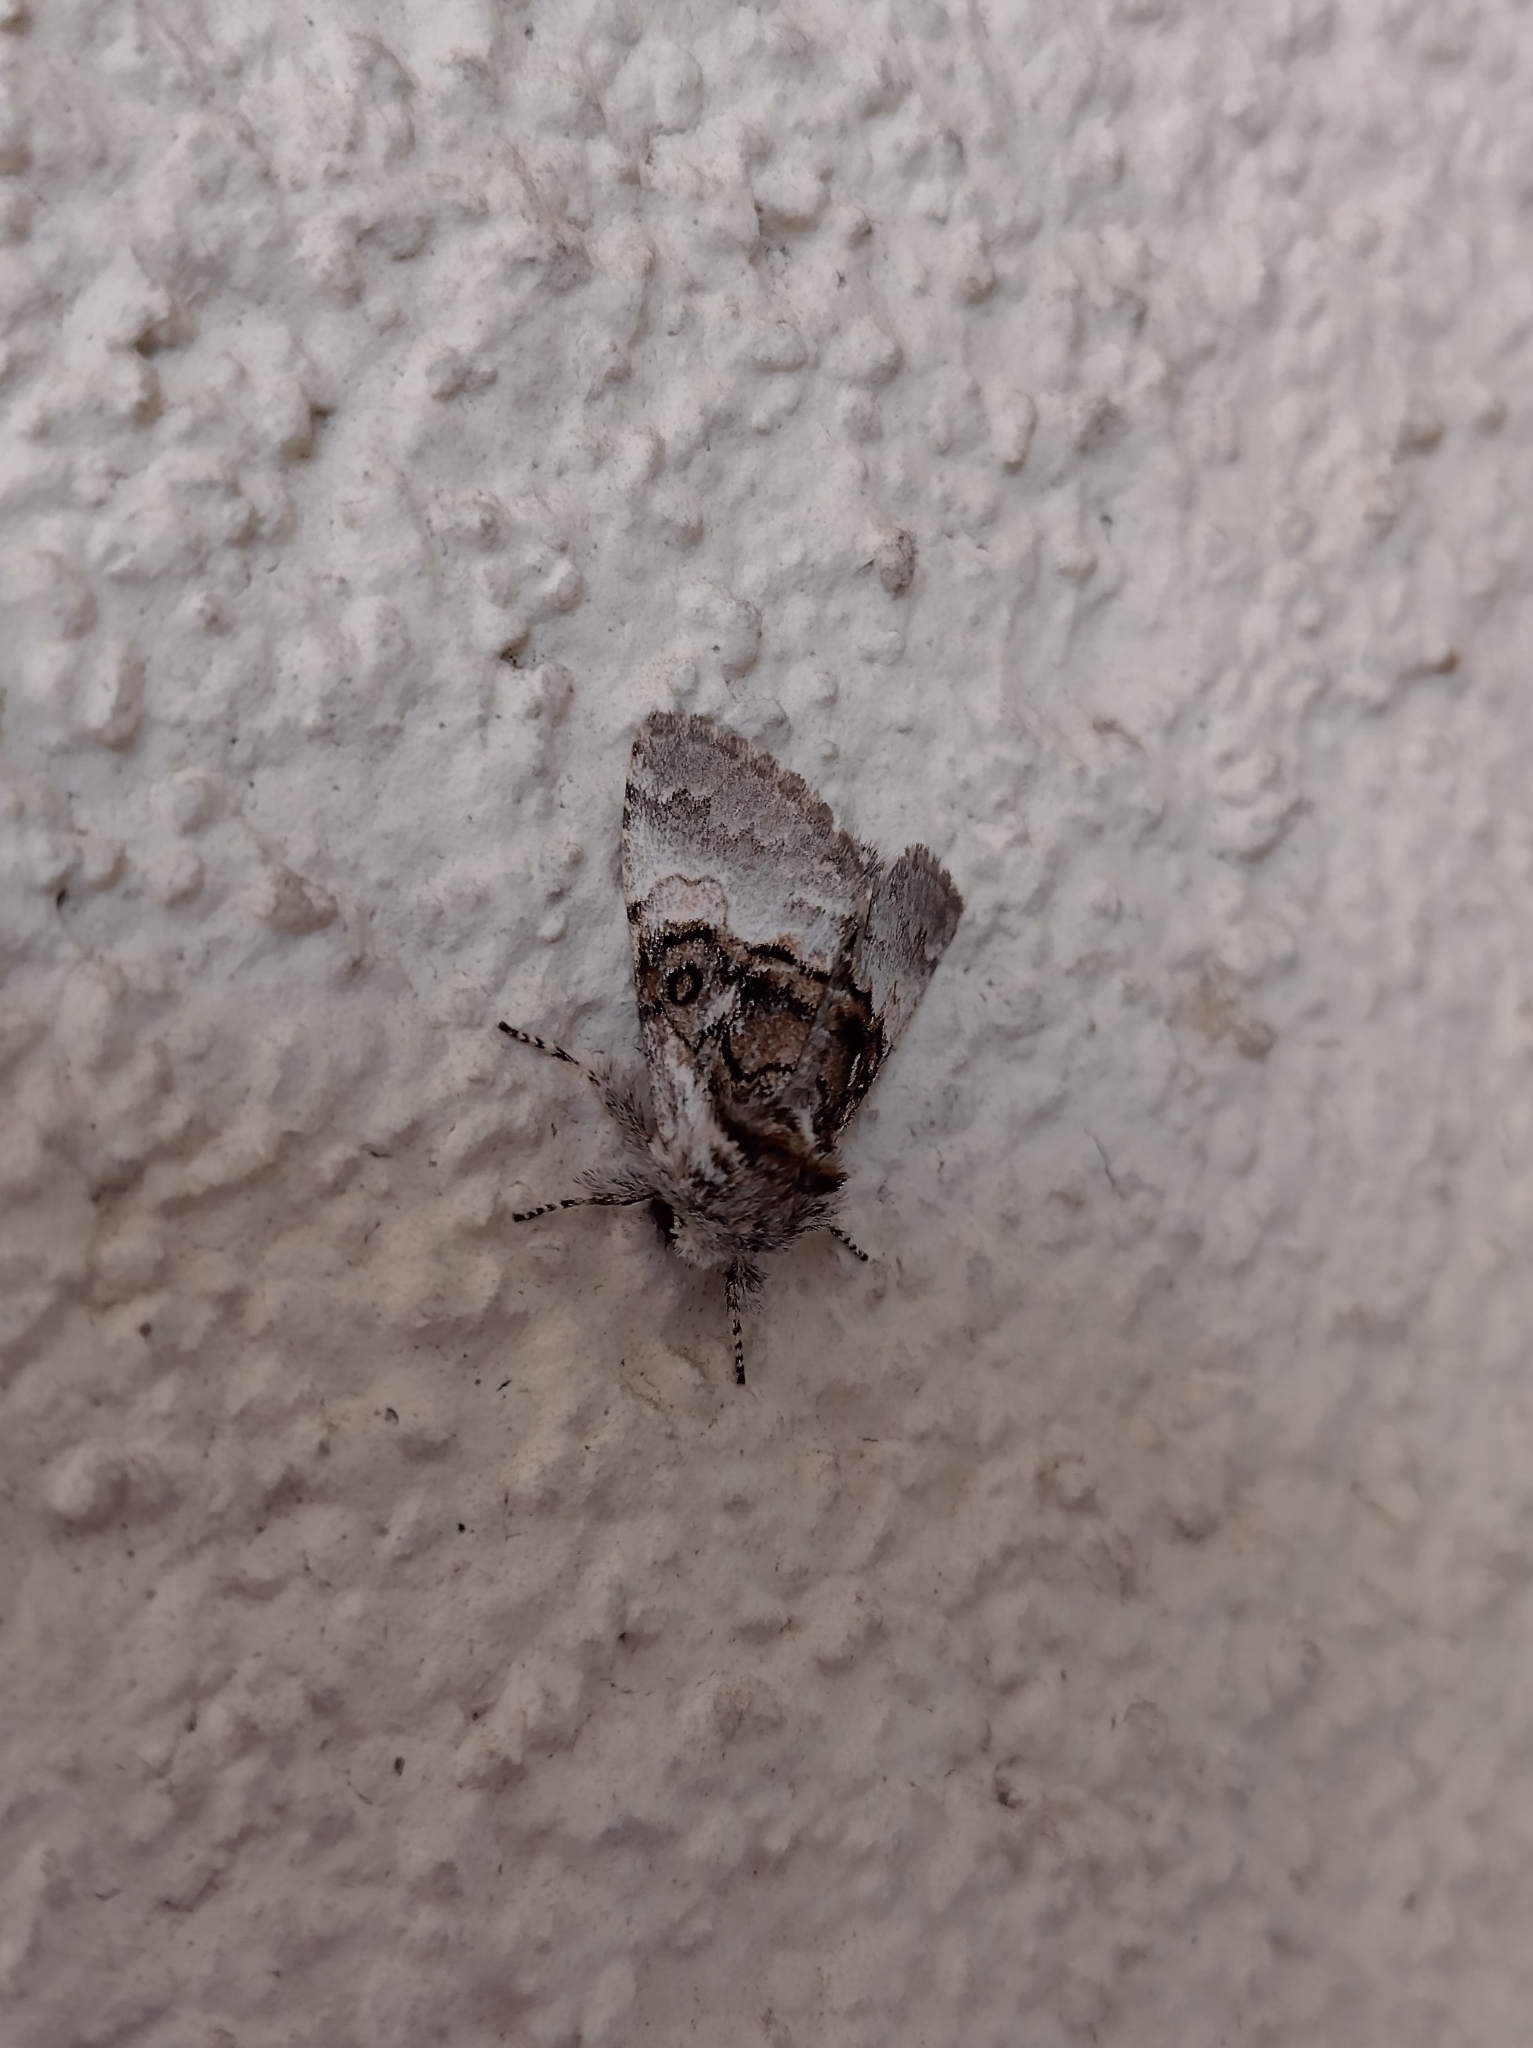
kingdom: Animalia
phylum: Arthropoda
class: Insecta
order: Lepidoptera
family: Noctuidae
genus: Colocasia
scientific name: Colocasia coryli
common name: Nut-tree tussock
